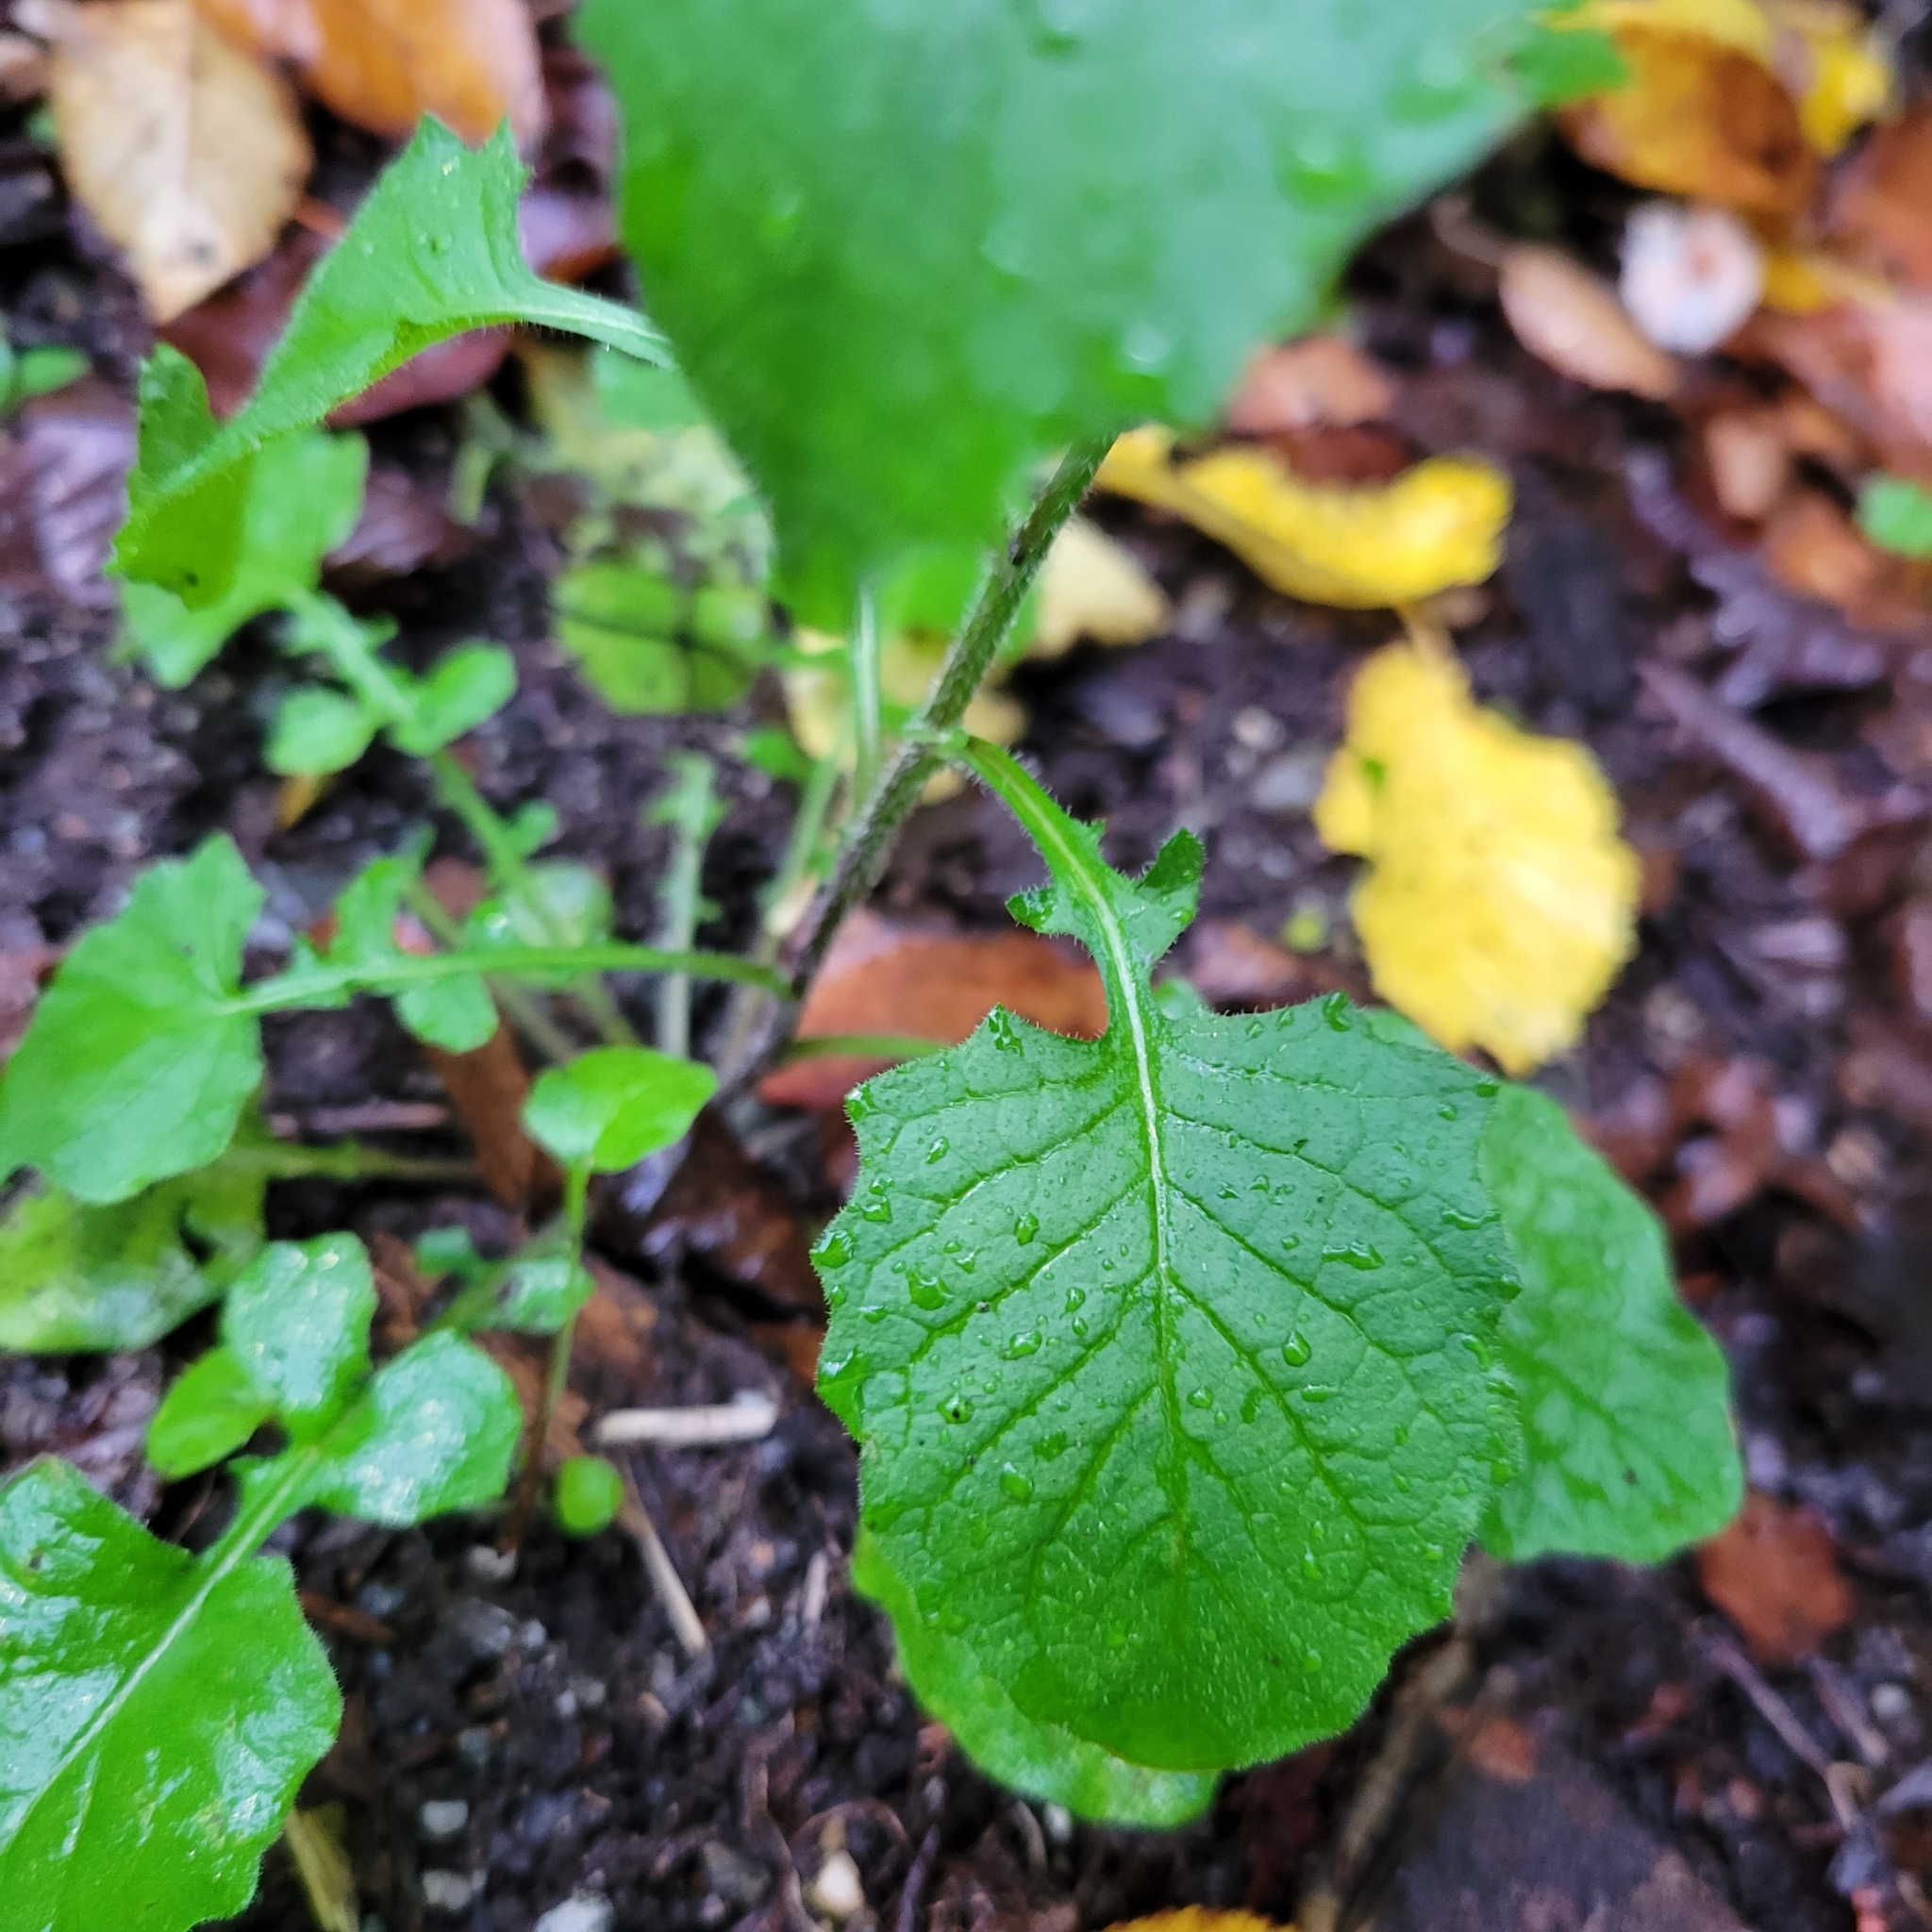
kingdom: Plantae
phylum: Tracheophyta
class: Magnoliopsida
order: Asterales
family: Asteraceae
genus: Lapsana
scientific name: Lapsana communis
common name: Nipplewort
